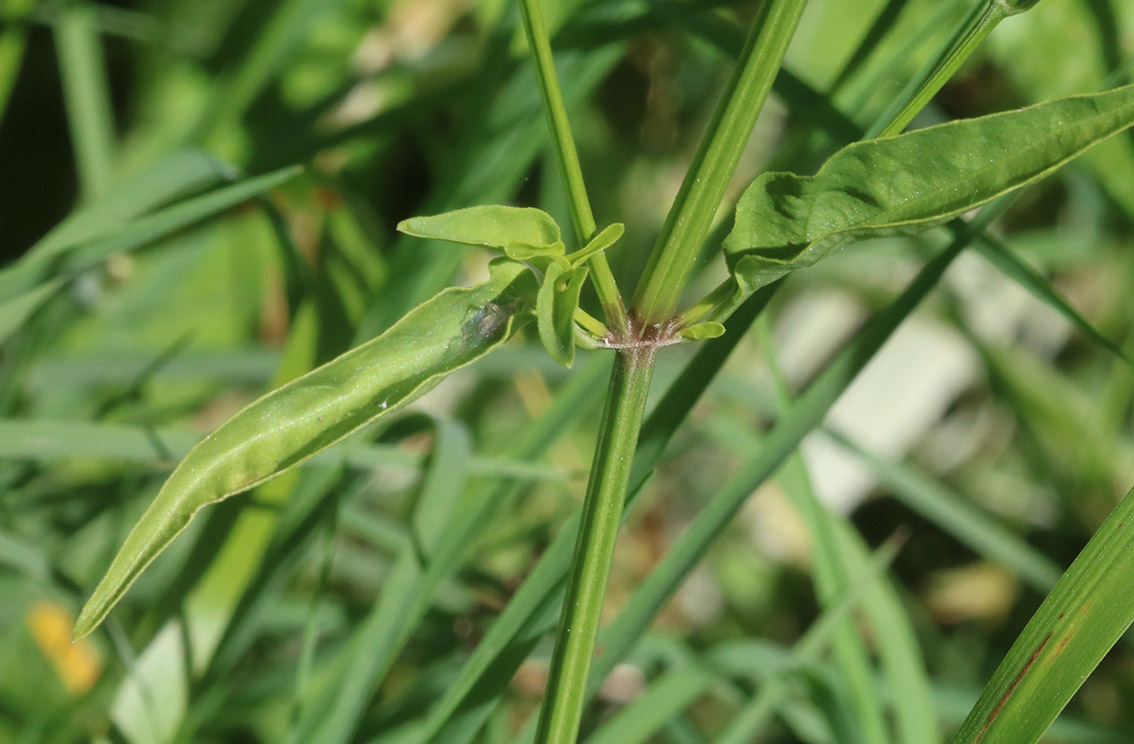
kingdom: Plantae
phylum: Tracheophyta
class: Magnoliopsida
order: Lamiales
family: Acanthaceae
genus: Dicliptera
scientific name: Dicliptera squarrosa
